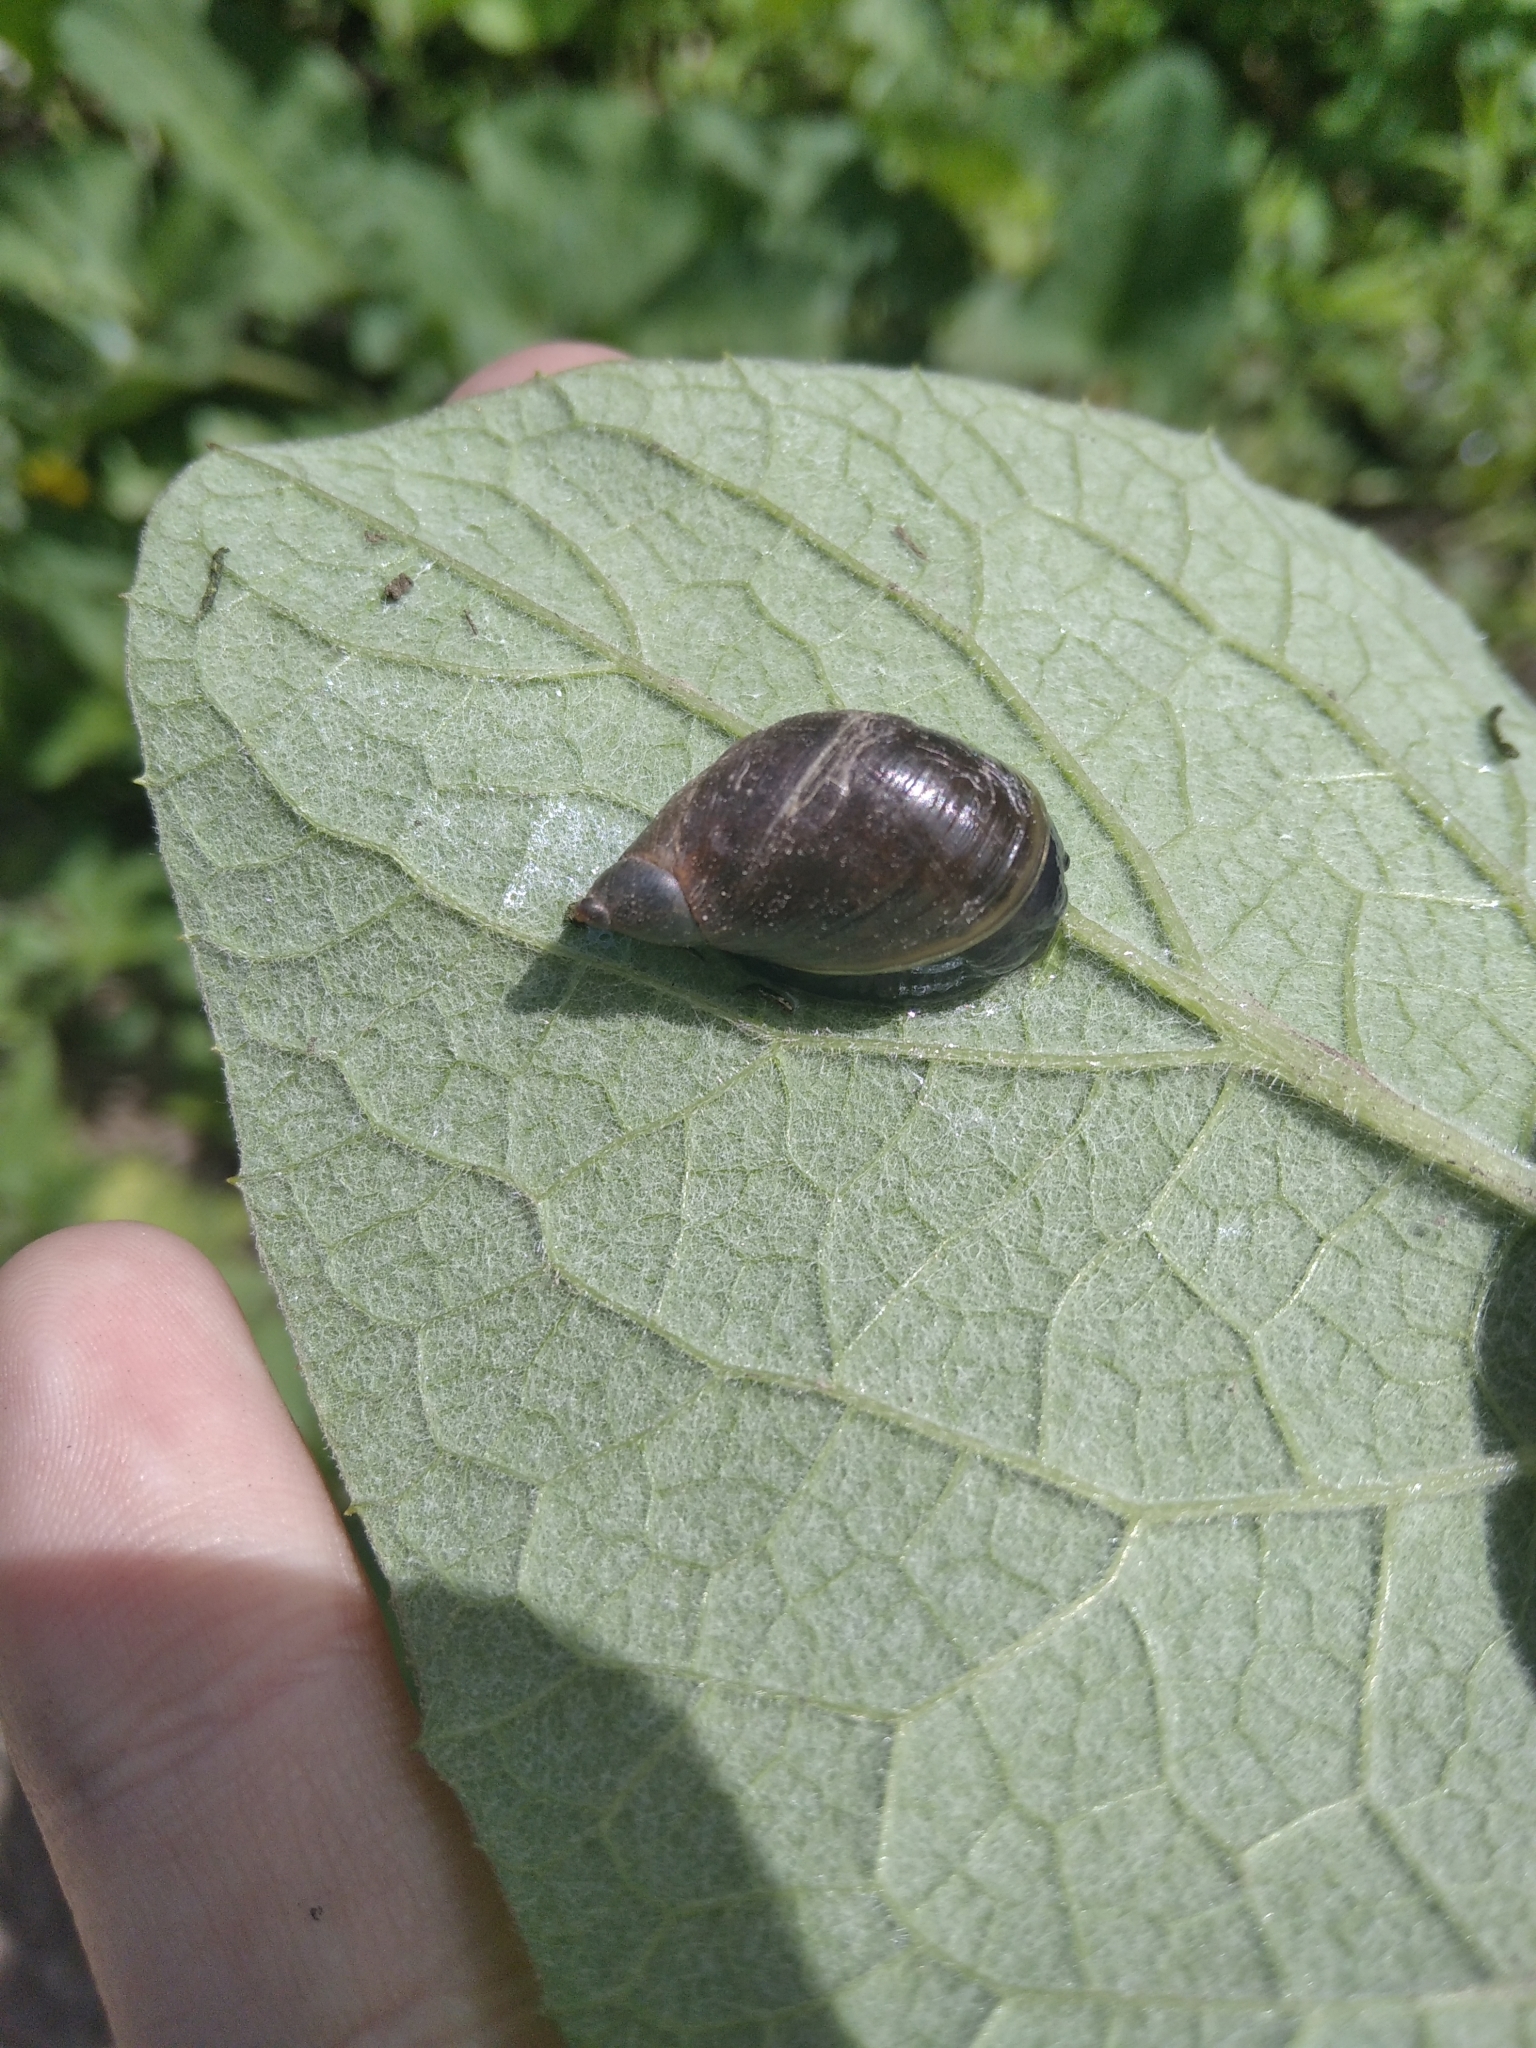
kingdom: Animalia
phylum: Mollusca
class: Gastropoda
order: Stylommatophora
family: Succineidae
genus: Succinea
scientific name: Succinea putris
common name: European ambersnail
